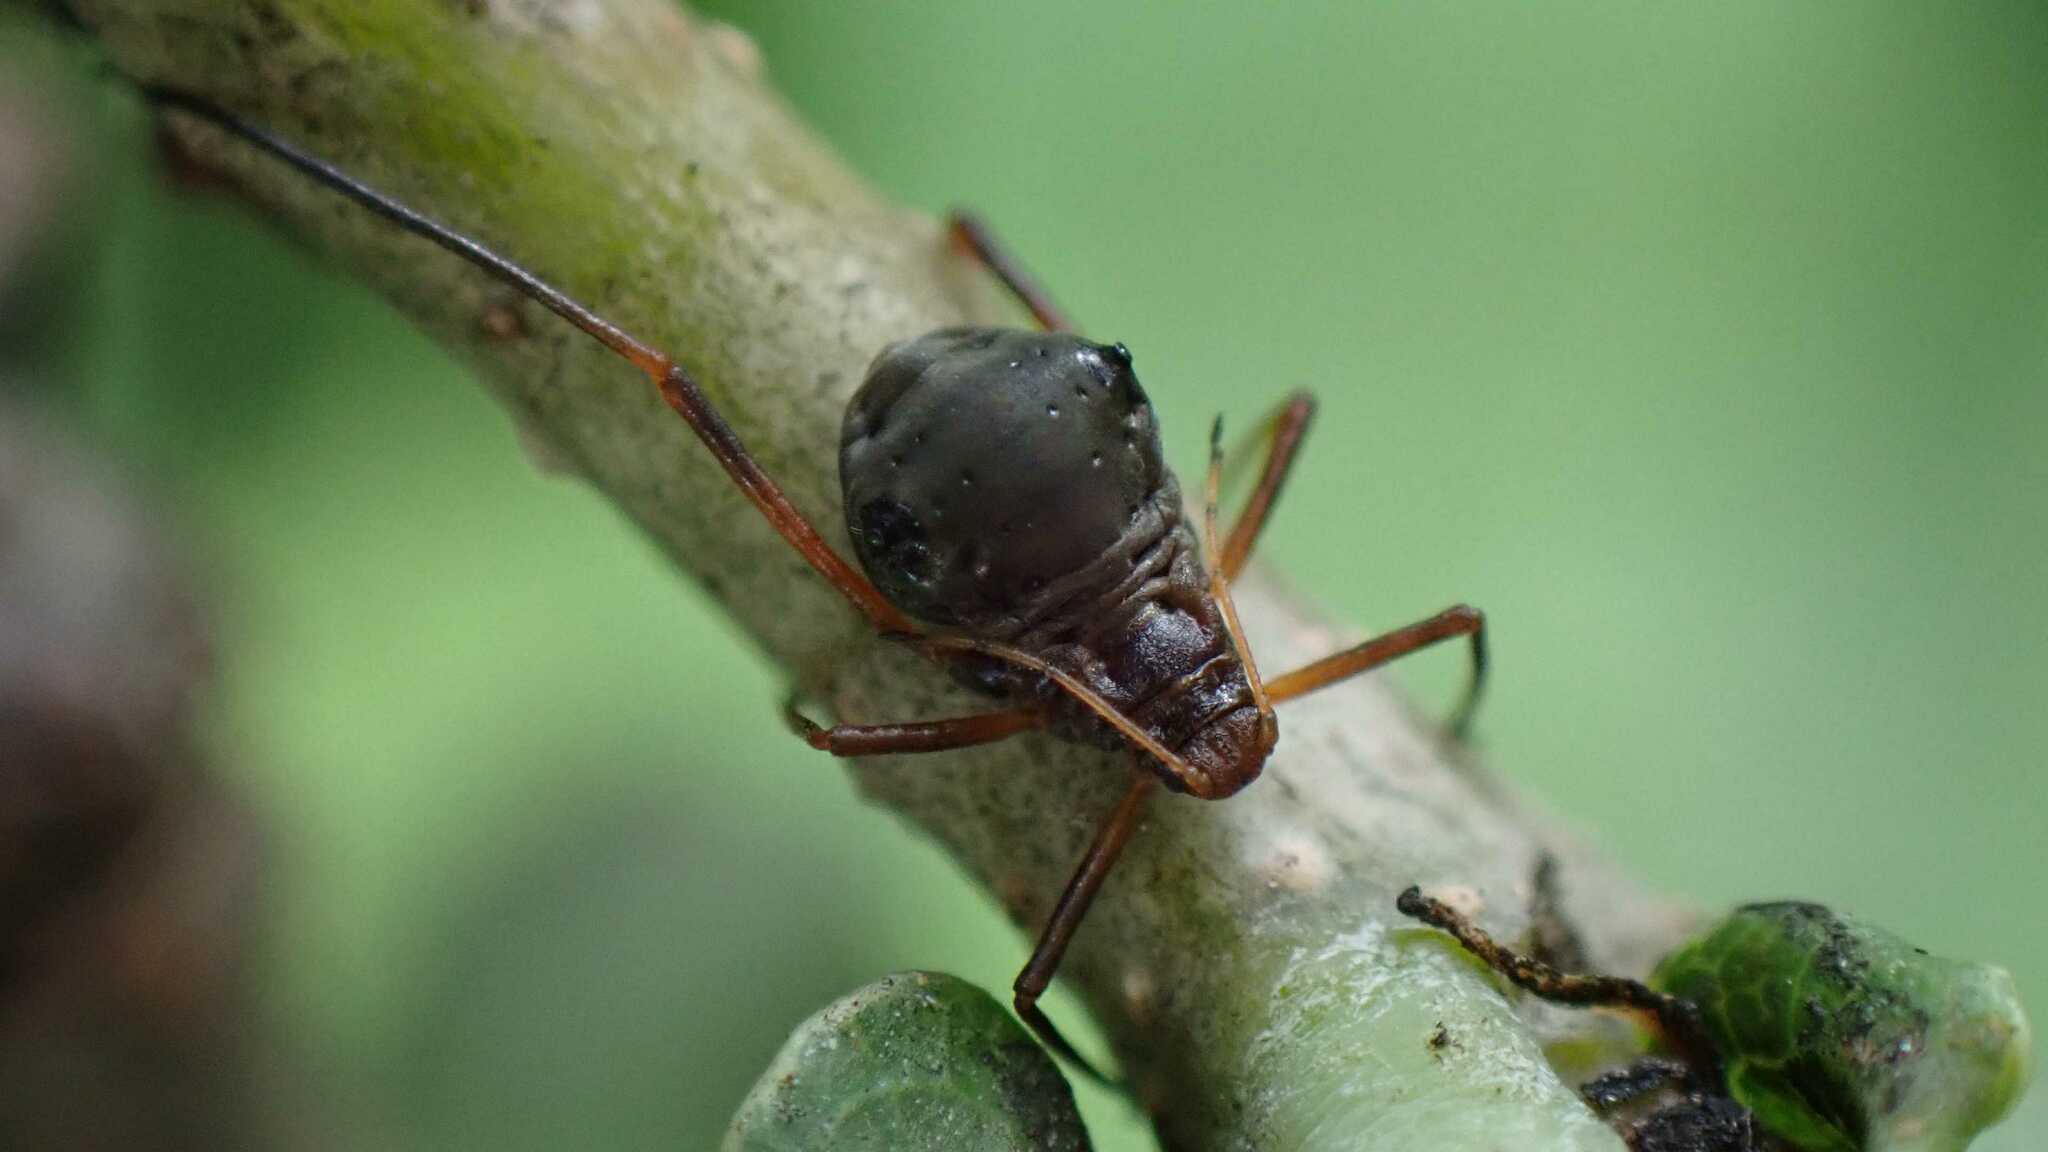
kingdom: Animalia
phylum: Arthropoda
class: Insecta
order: Hemiptera
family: Aphididae
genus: Lachnus
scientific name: Lachnus roboris
